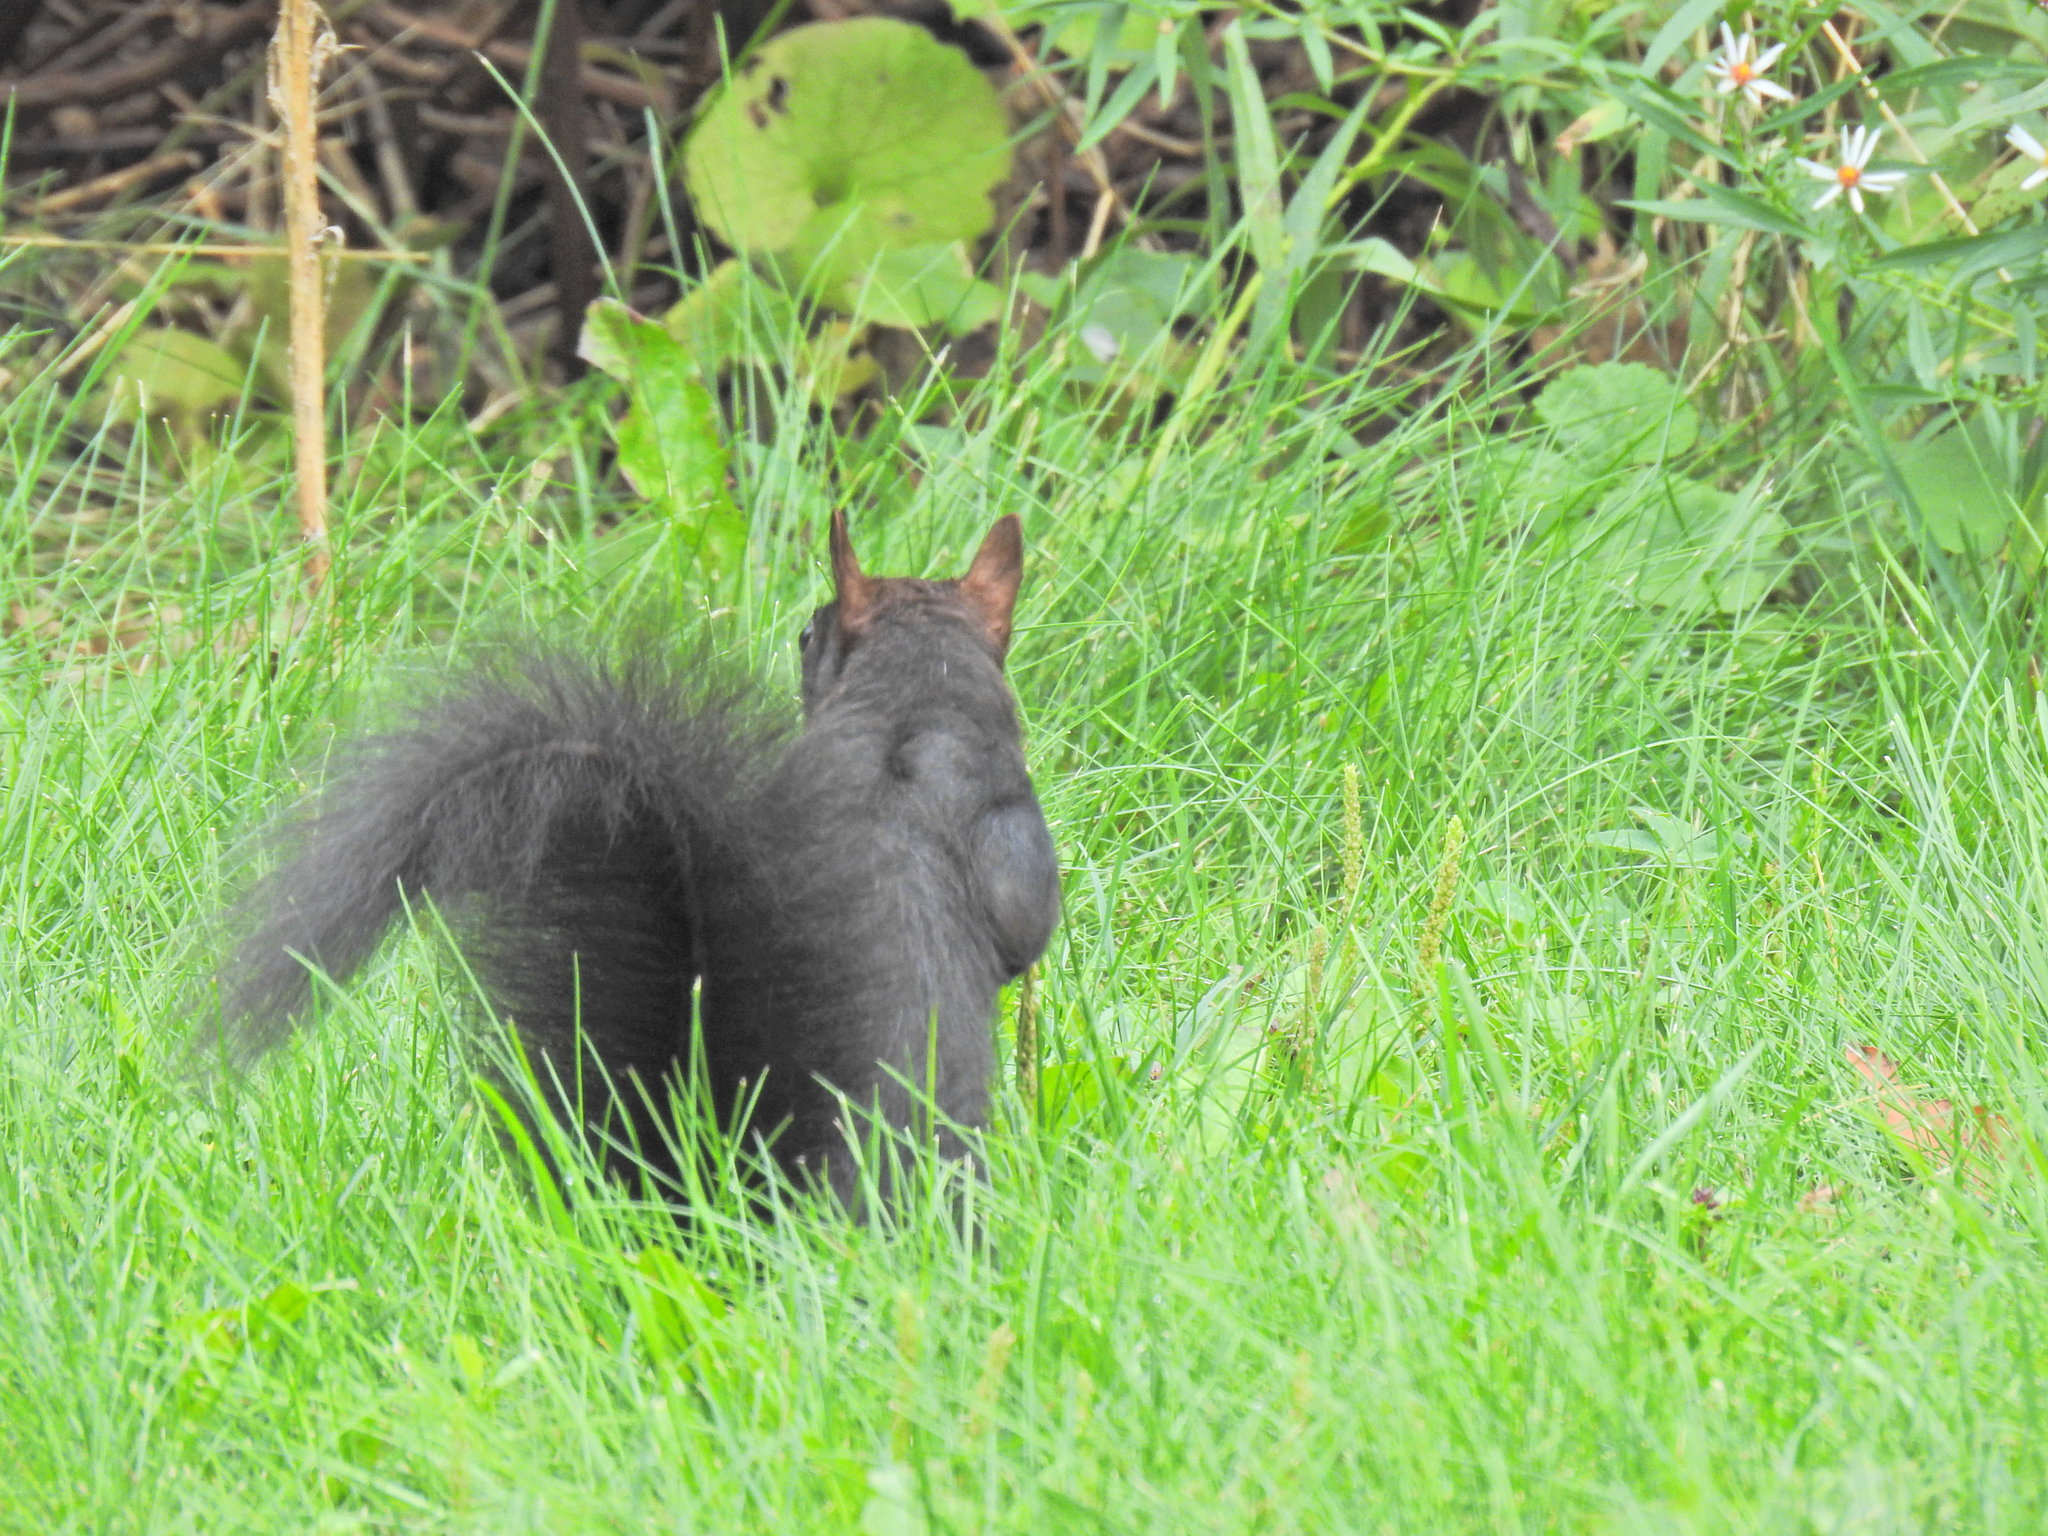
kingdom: Animalia
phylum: Chordata
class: Mammalia
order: Rodentia
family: Sciuridae
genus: Sciurus
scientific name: Sciurus carolinensis
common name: Eastern gray squirrel
